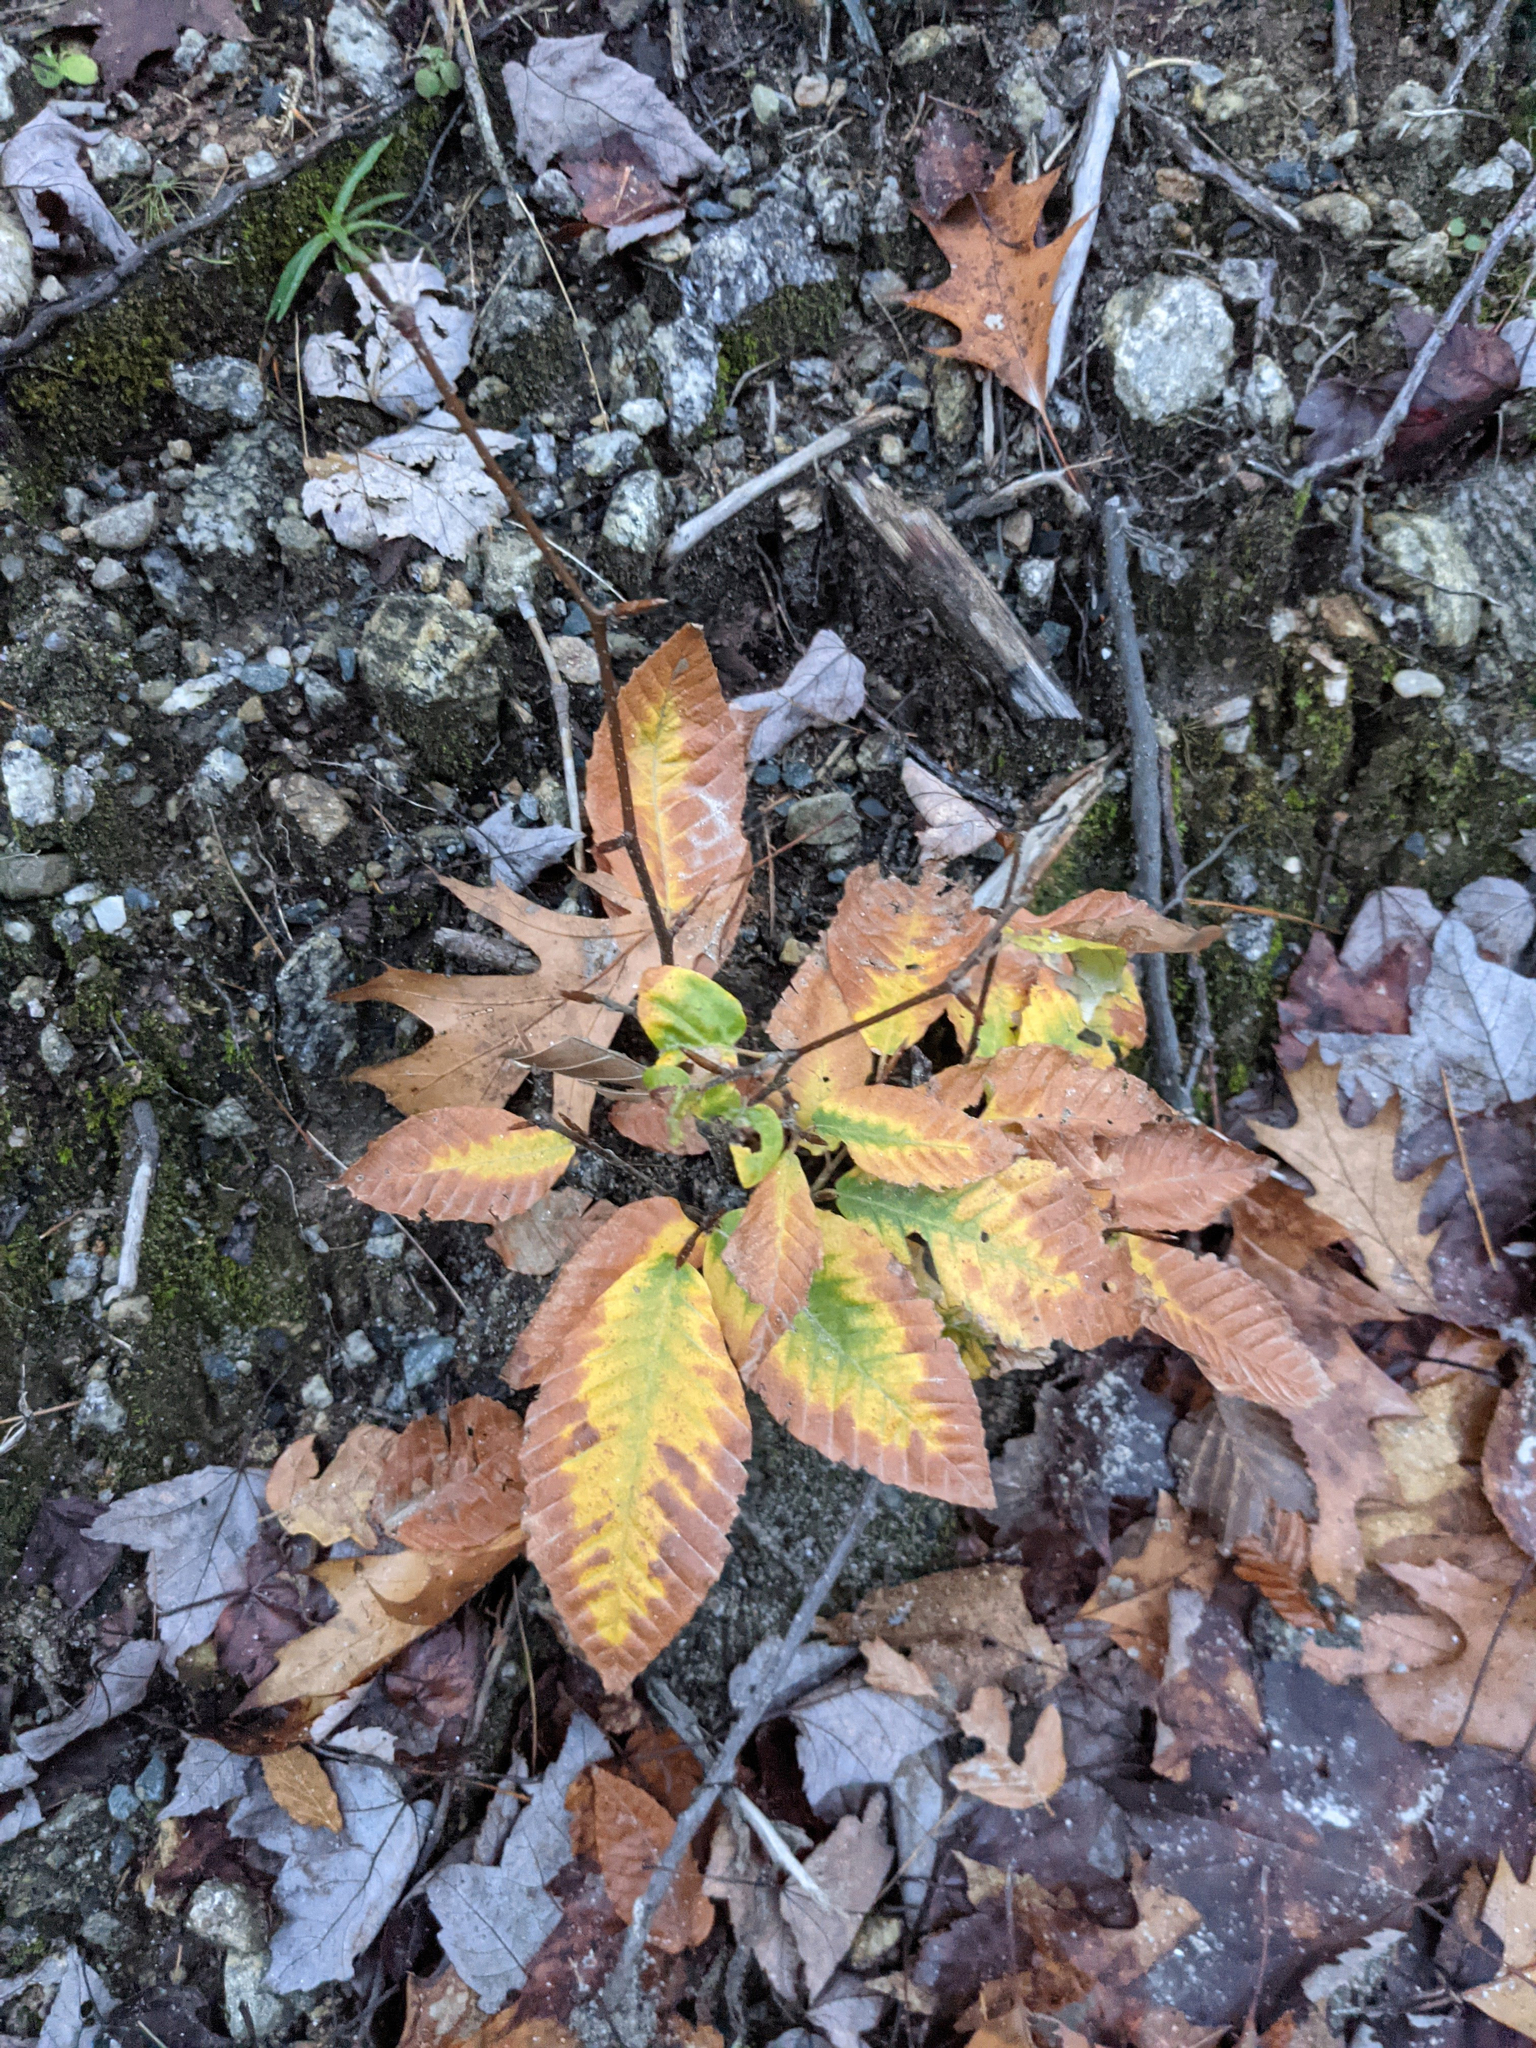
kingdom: Plantae
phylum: Tracheophyta
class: Magnoliopsida
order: Fagales
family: Fagaceae
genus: Fagus
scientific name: Fagus grandifolia
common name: American beech
